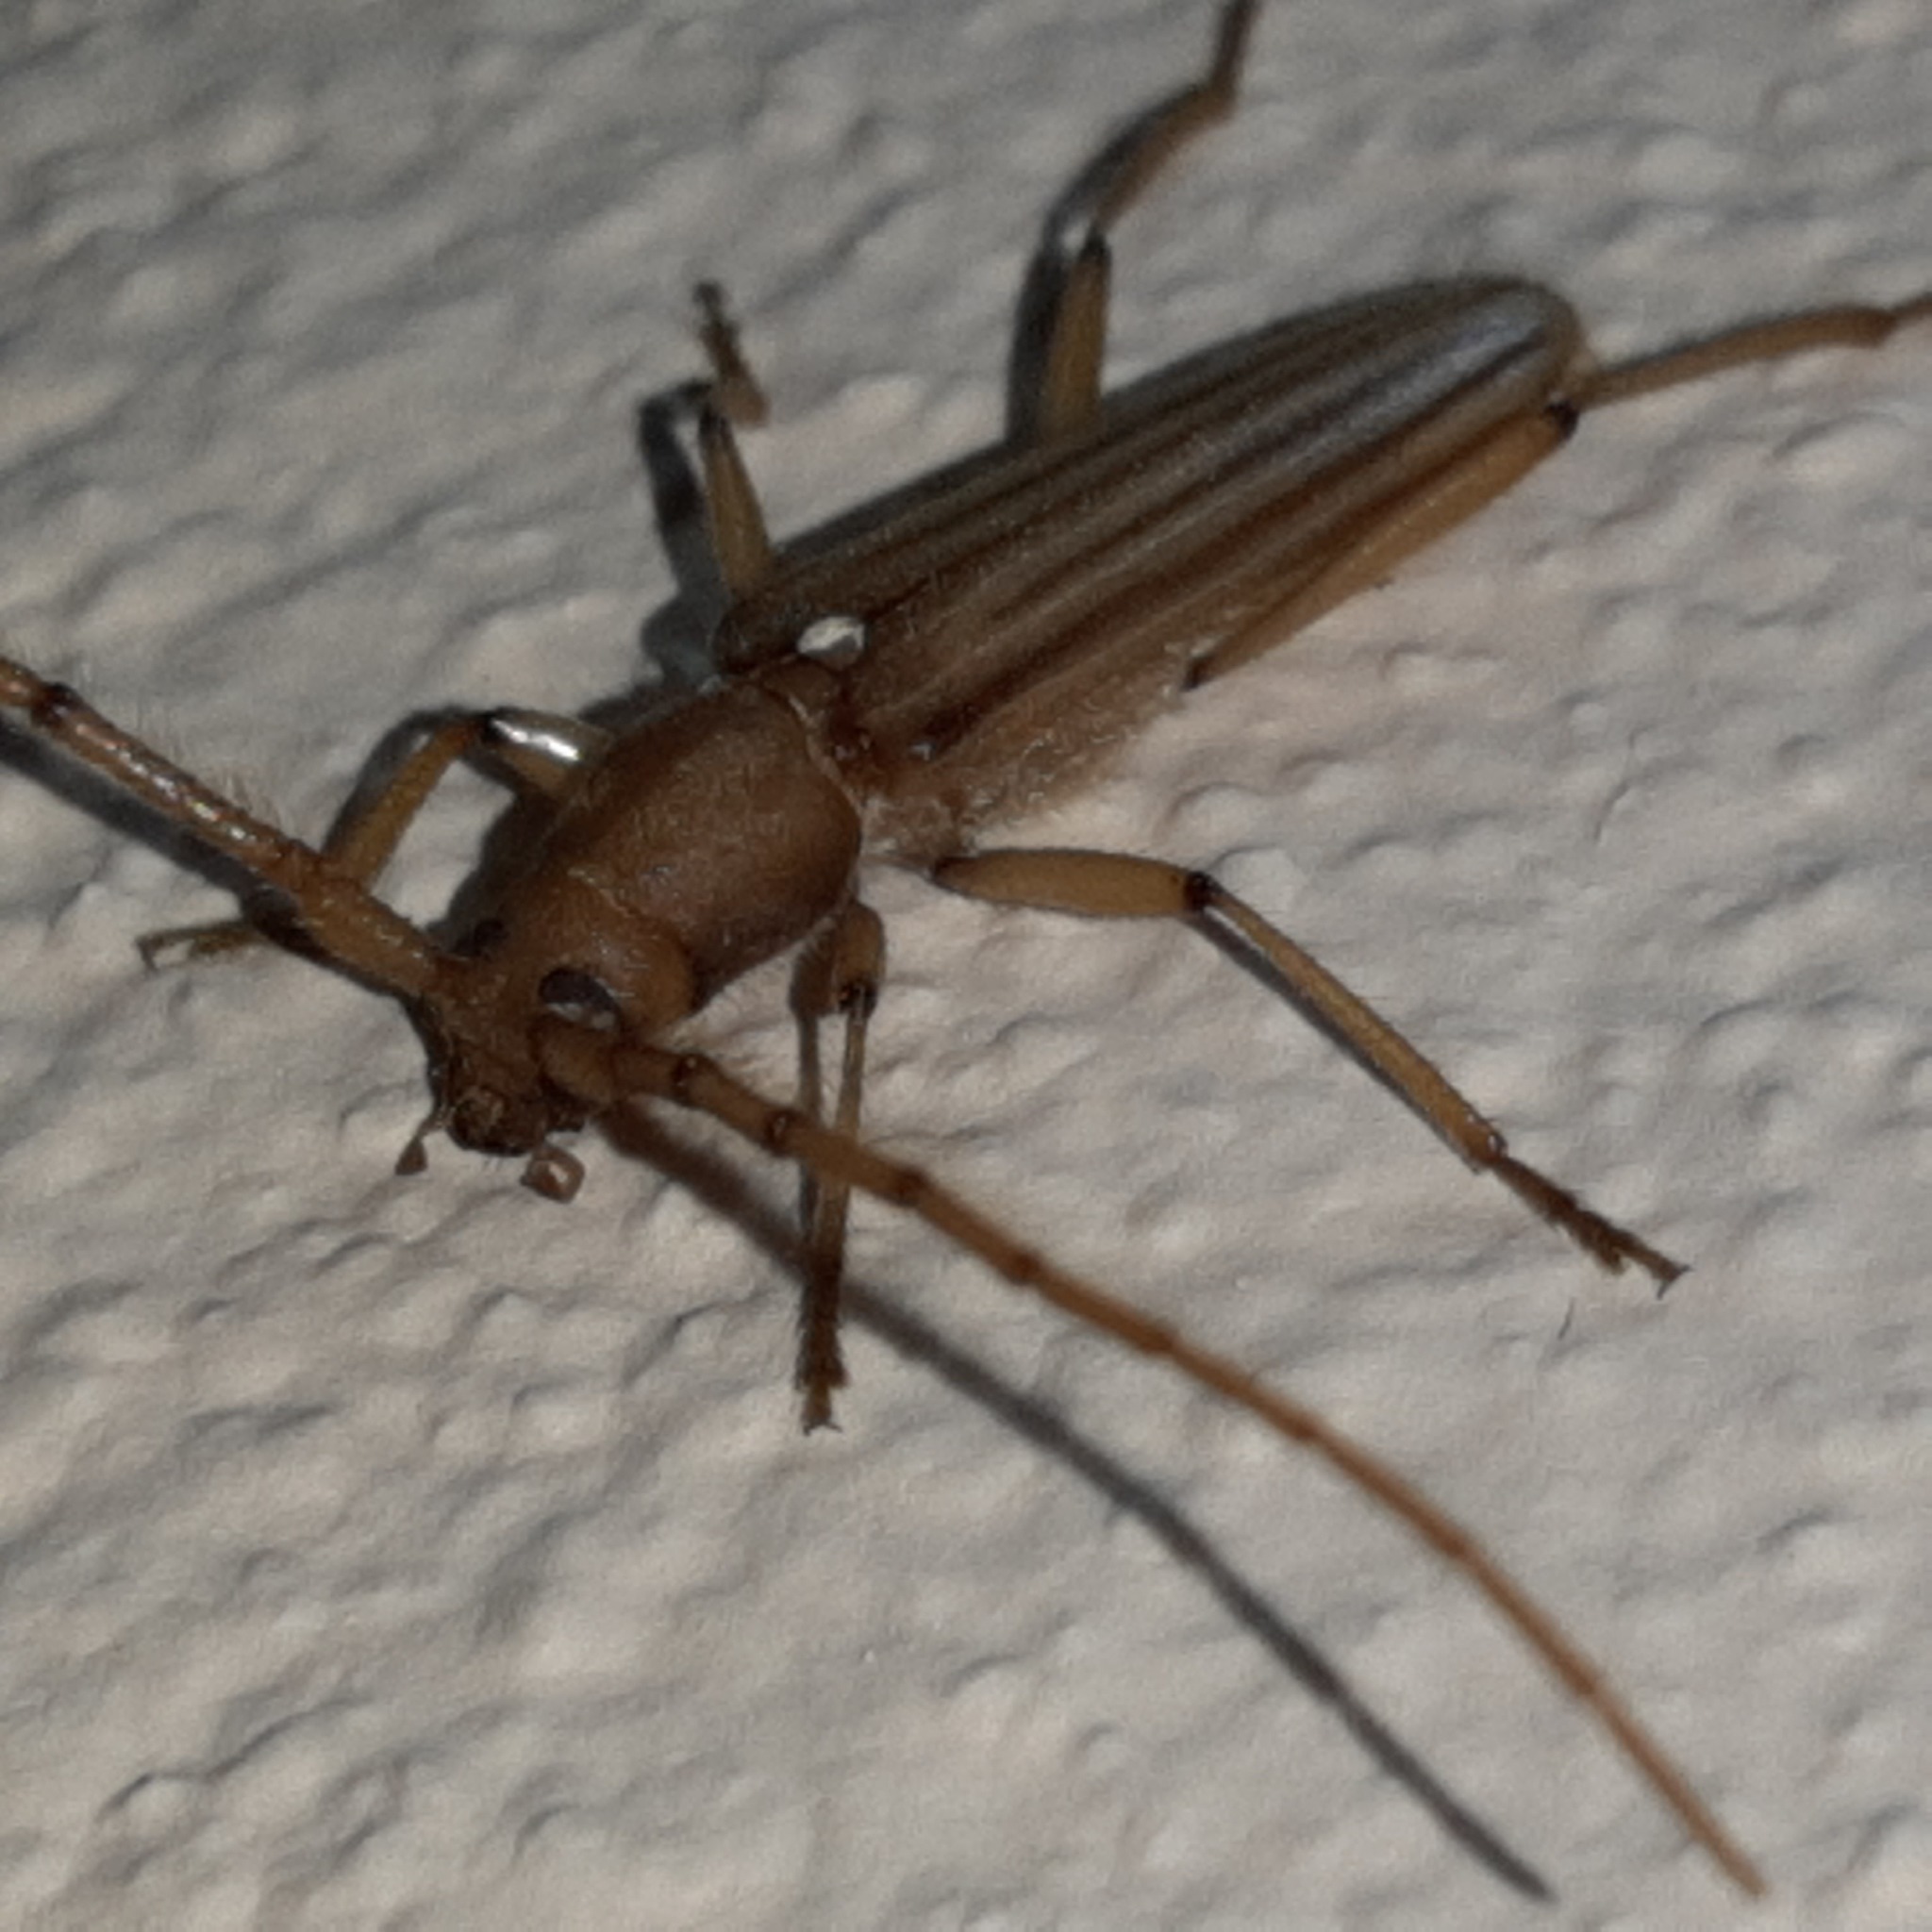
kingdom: Animalia
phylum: Arthropoda
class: Insecta
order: Coleoptera
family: Cerambycidae
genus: Malacopterus
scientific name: Malacopterus tenellus
